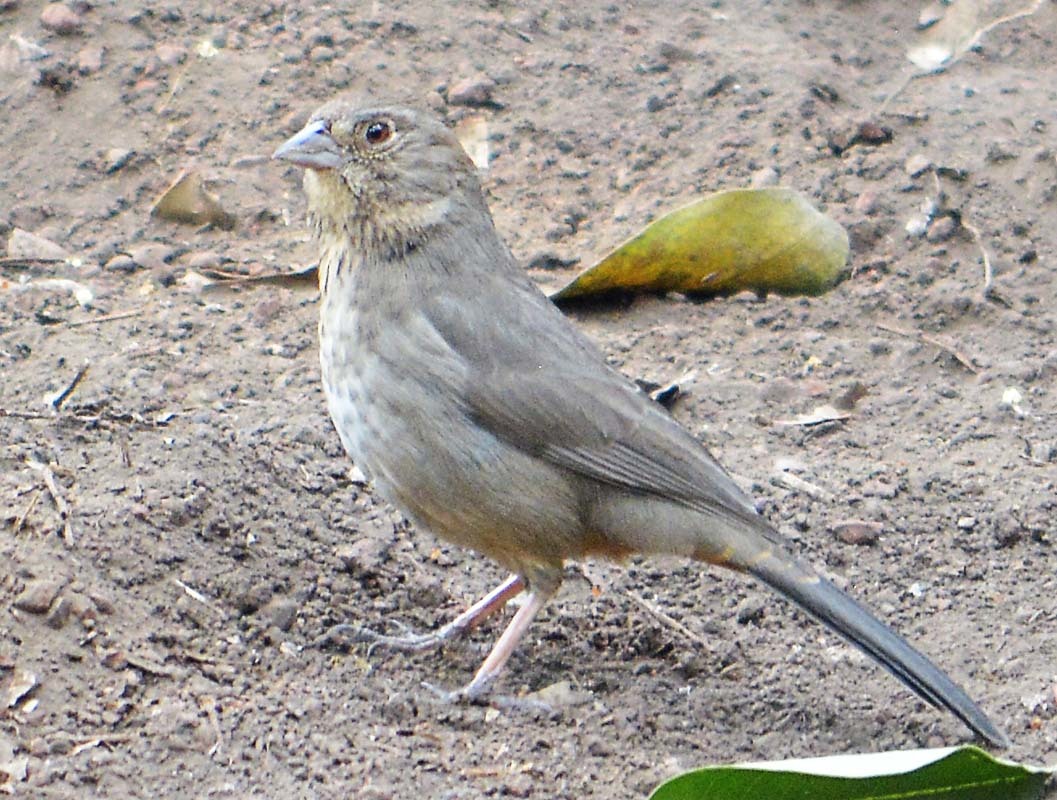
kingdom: Animalia
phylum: Chordata
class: Aves
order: Passeriformes
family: Passerellidae
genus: Melozone
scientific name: Melozone fusca
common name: Canyon towhee
